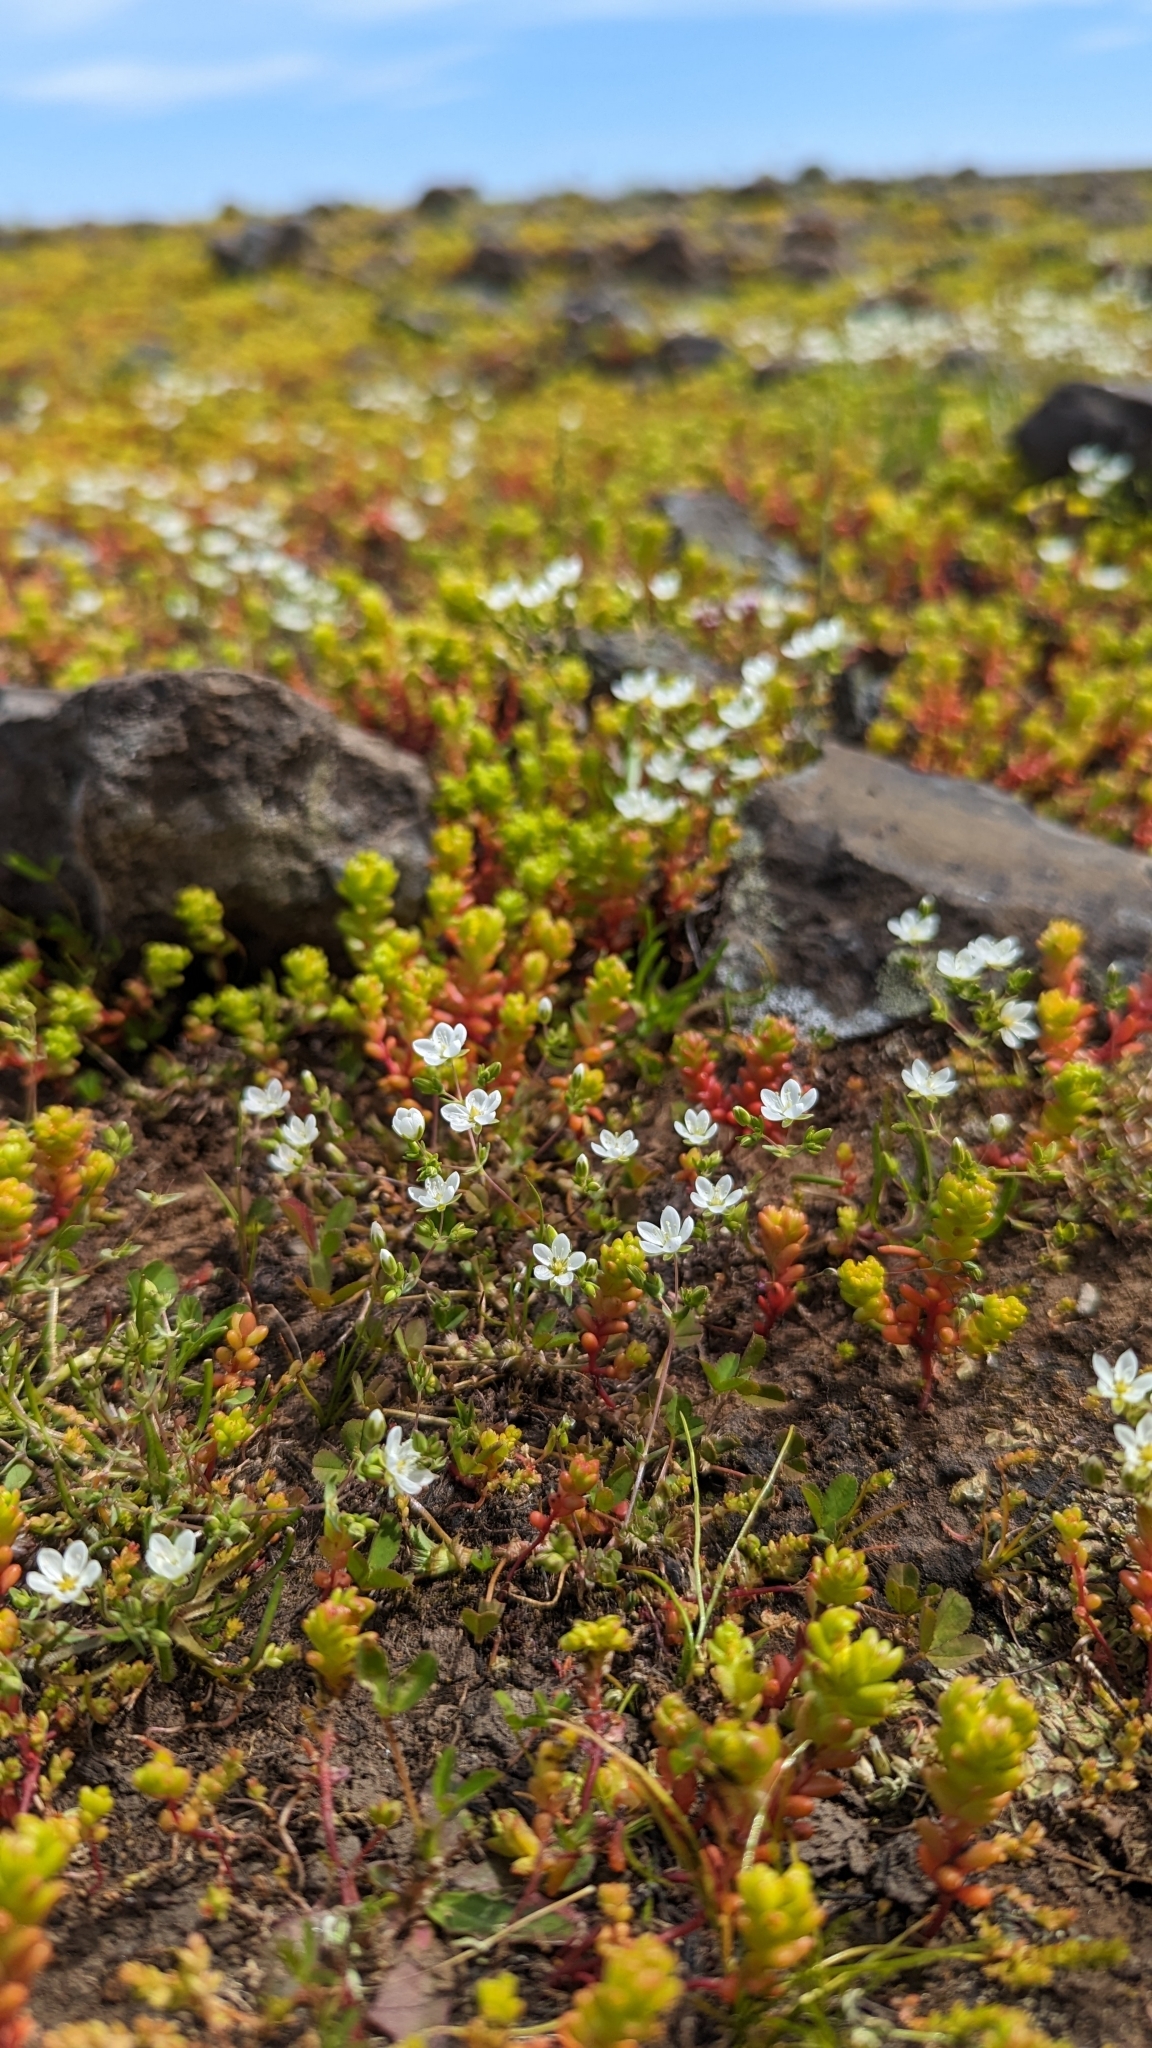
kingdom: Plantae
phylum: Tracheophyta
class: Magnoliopsida
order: Caryophyllales
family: Caryophyllaceae
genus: Sabulina
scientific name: Sabulina californica
